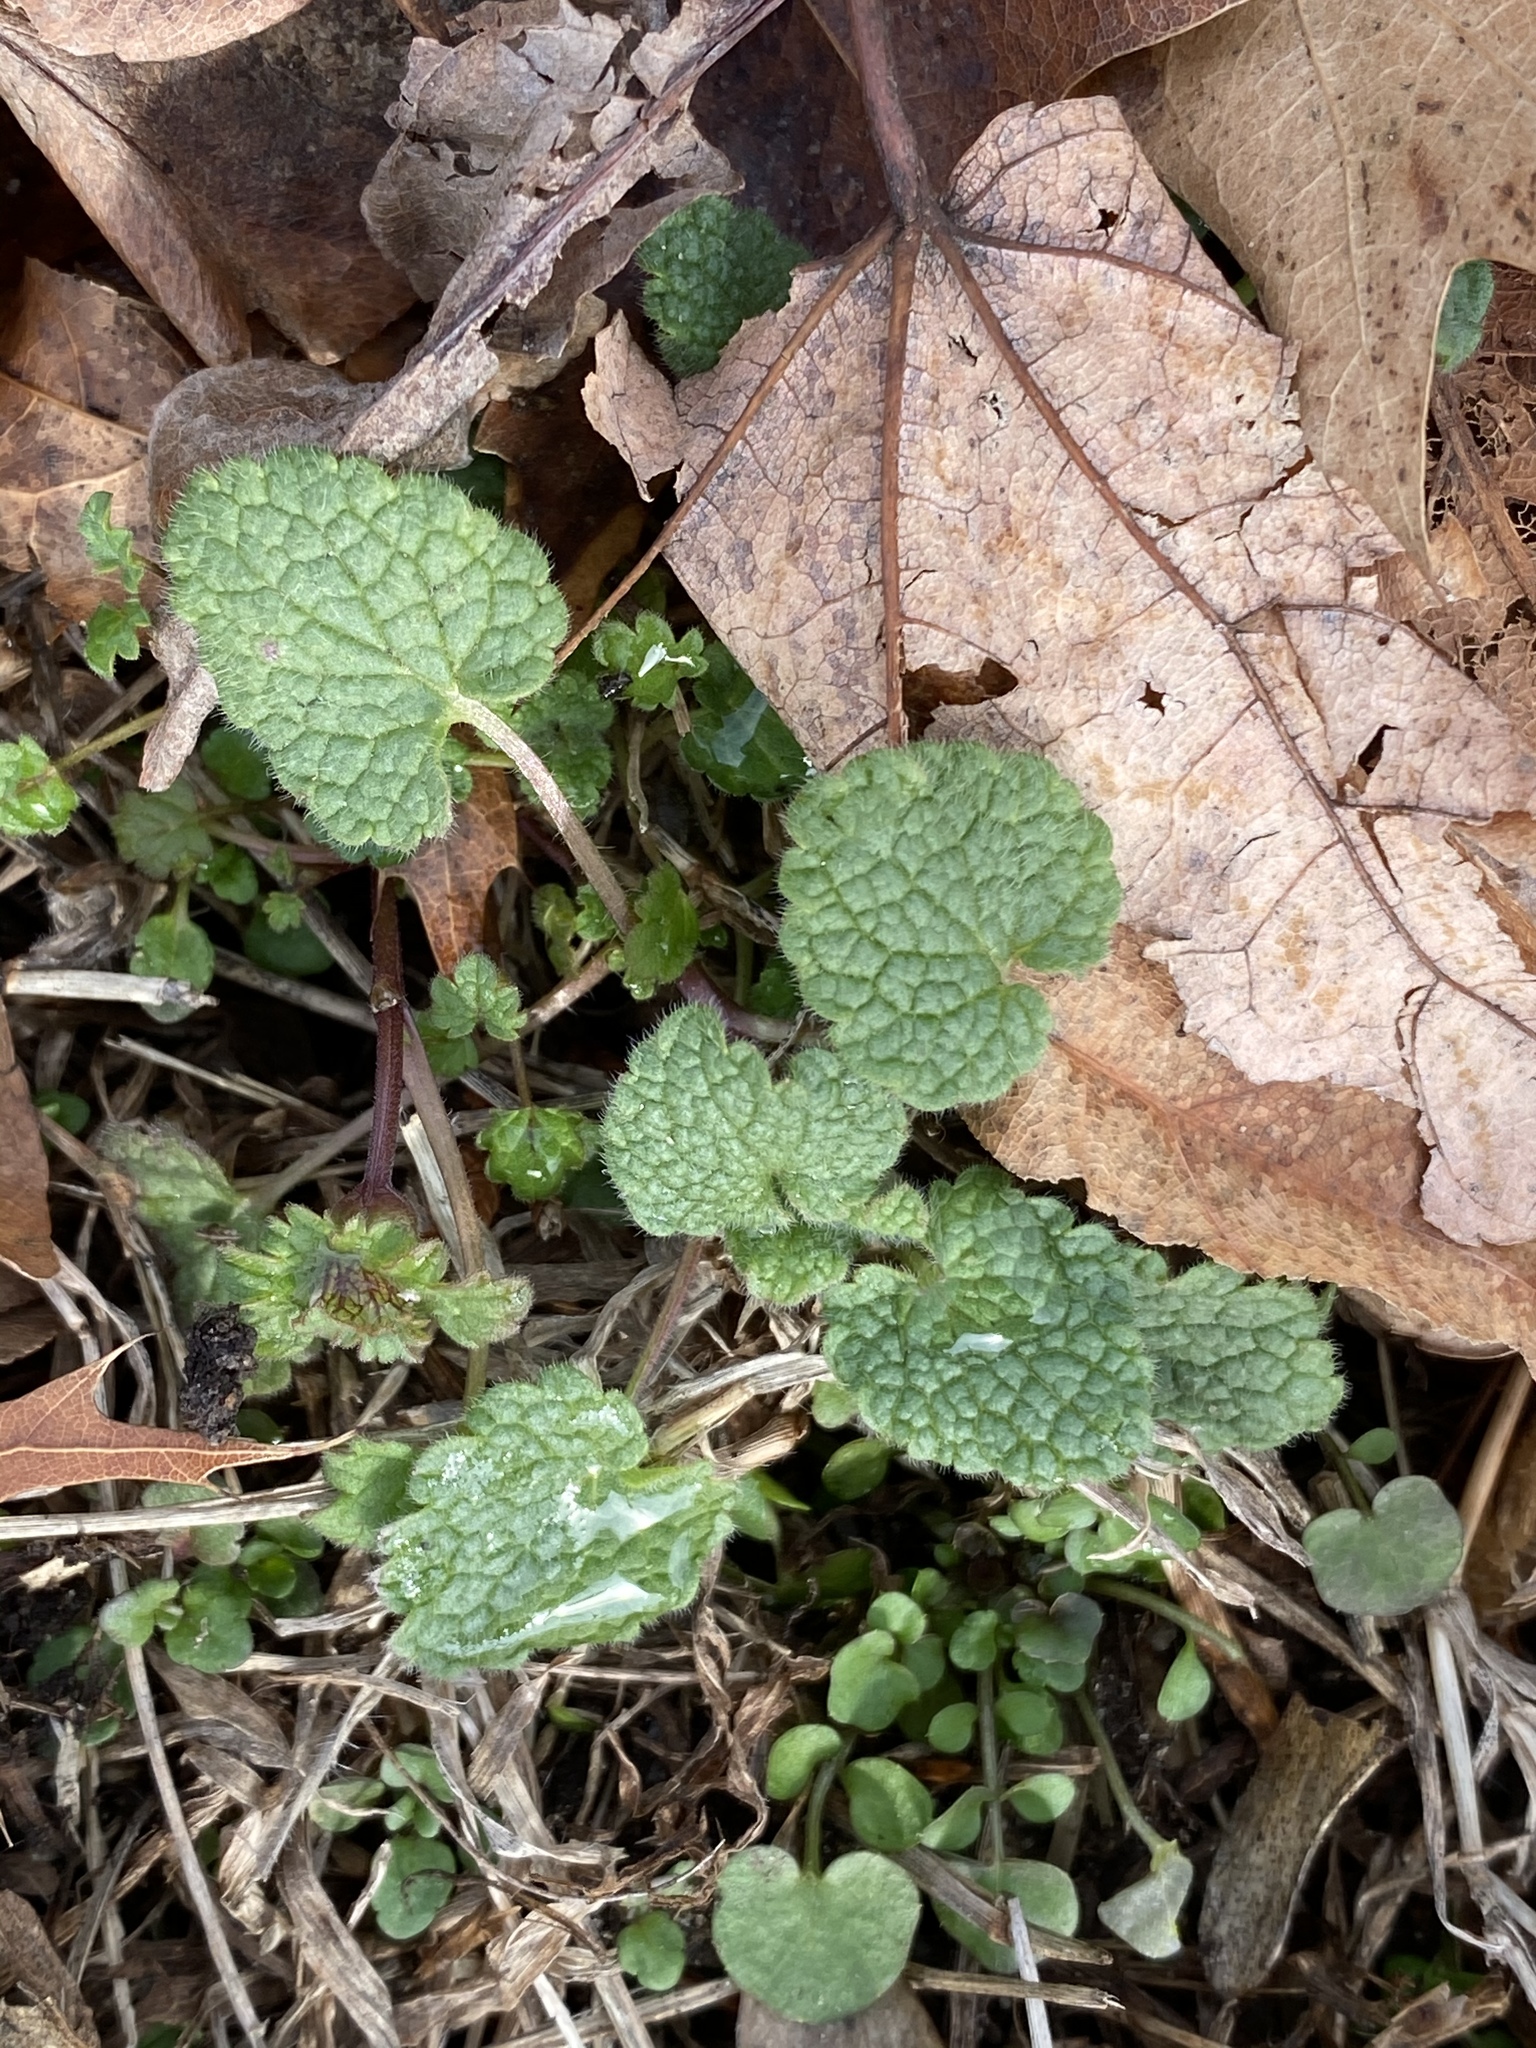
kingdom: Plantae
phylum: Tracheophyta
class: Magnoliopsida
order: Lamiales
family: Lamiaceae
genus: Lamium
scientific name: Lamium purpureum
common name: Red dead-nettle
